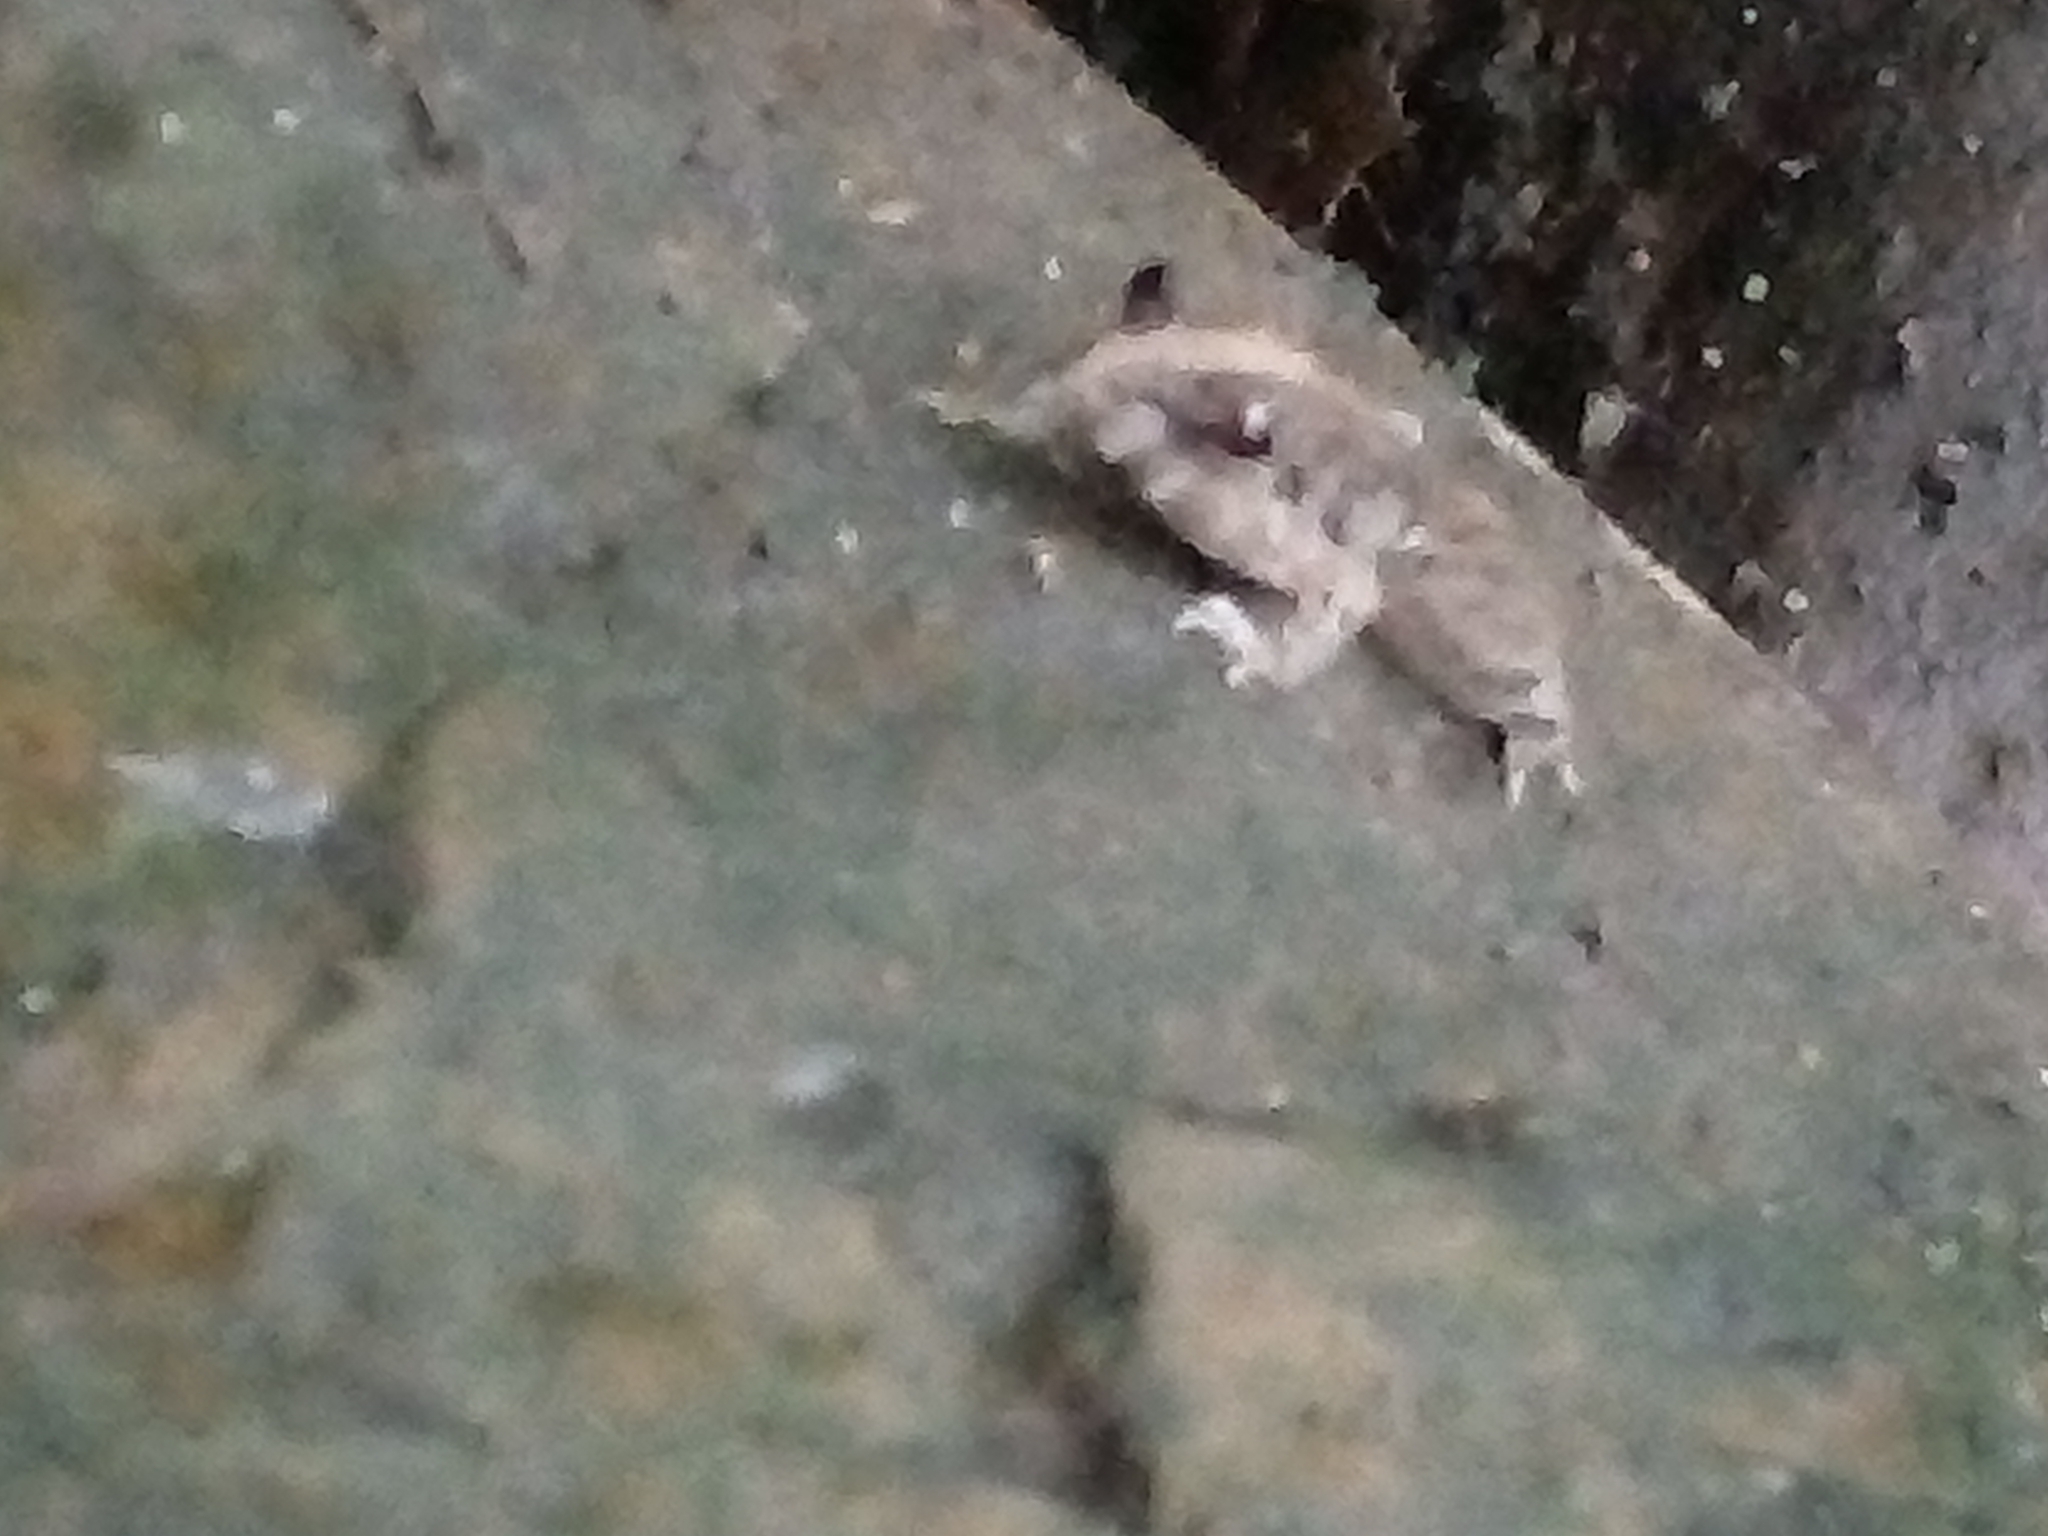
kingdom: Animalia
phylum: Chordata
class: Amphibia
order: Anura
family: Dicroglossidae
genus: Fejervarya
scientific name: Fejervarya limnocharis
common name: Asian grass frog/common pond frog/field frog/grass frog/indian rice frog
